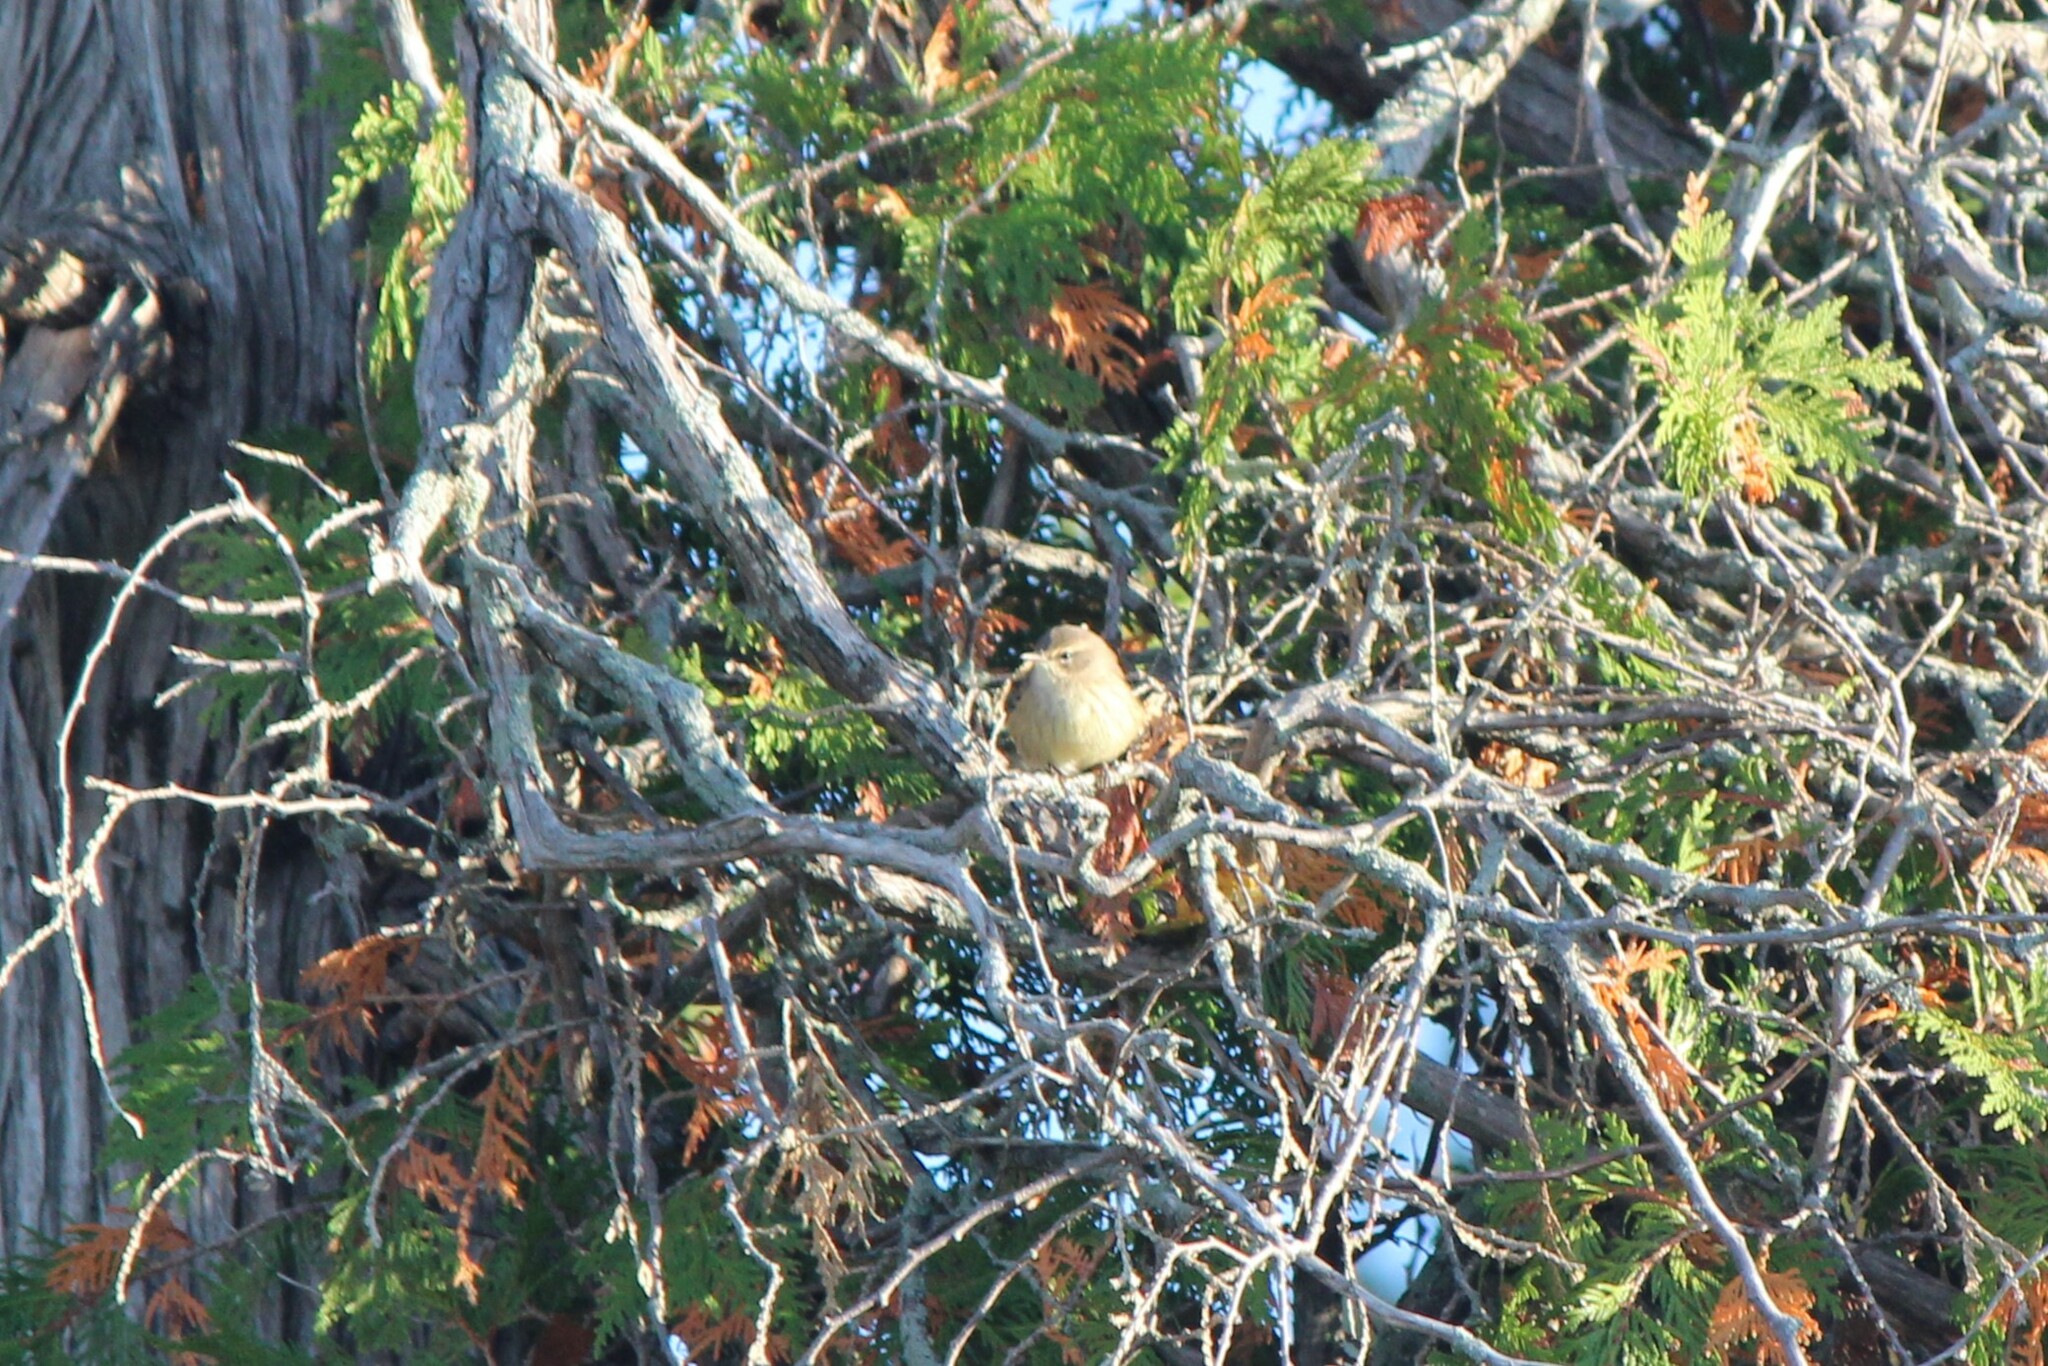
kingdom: Animalia
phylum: Chordata
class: Aves
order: Passeriformes
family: Parulidae
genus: Setophaga
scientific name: Setophaga palmarum
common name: Palm warbler
